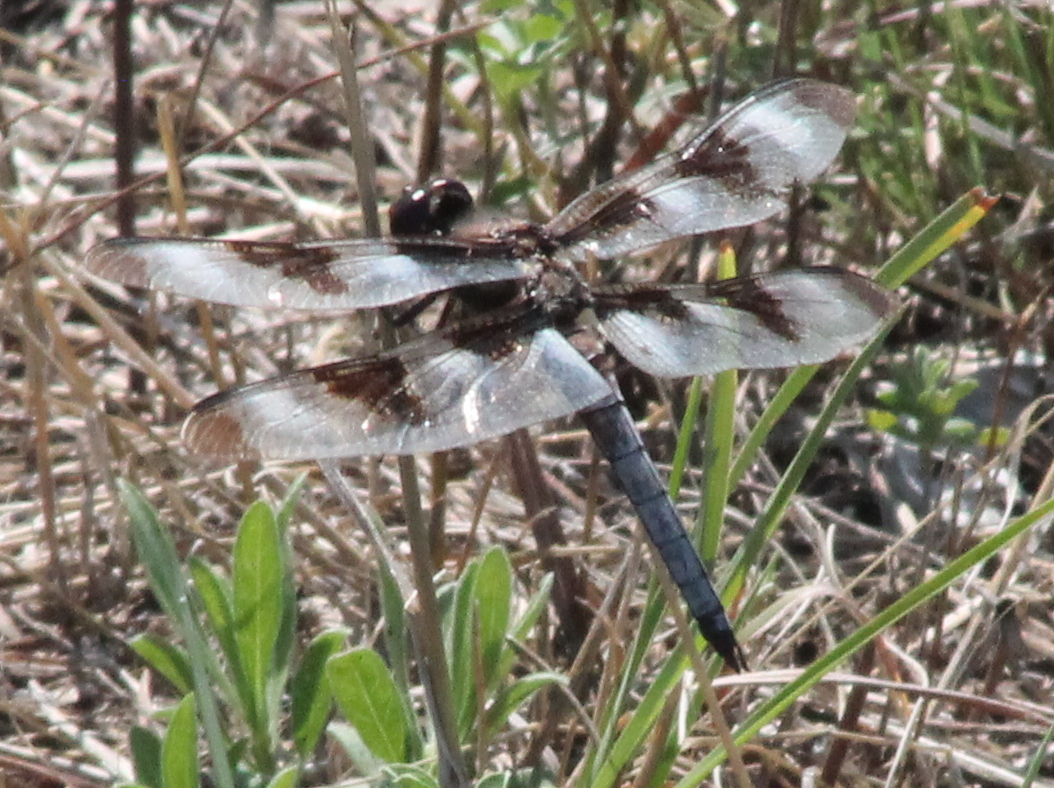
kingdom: Animalia
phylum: Arthropoda
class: Insecta
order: Odonata
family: Libellulidae
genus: Libellula
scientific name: Libellula pulchella
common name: Twelve-spotted skimmer
